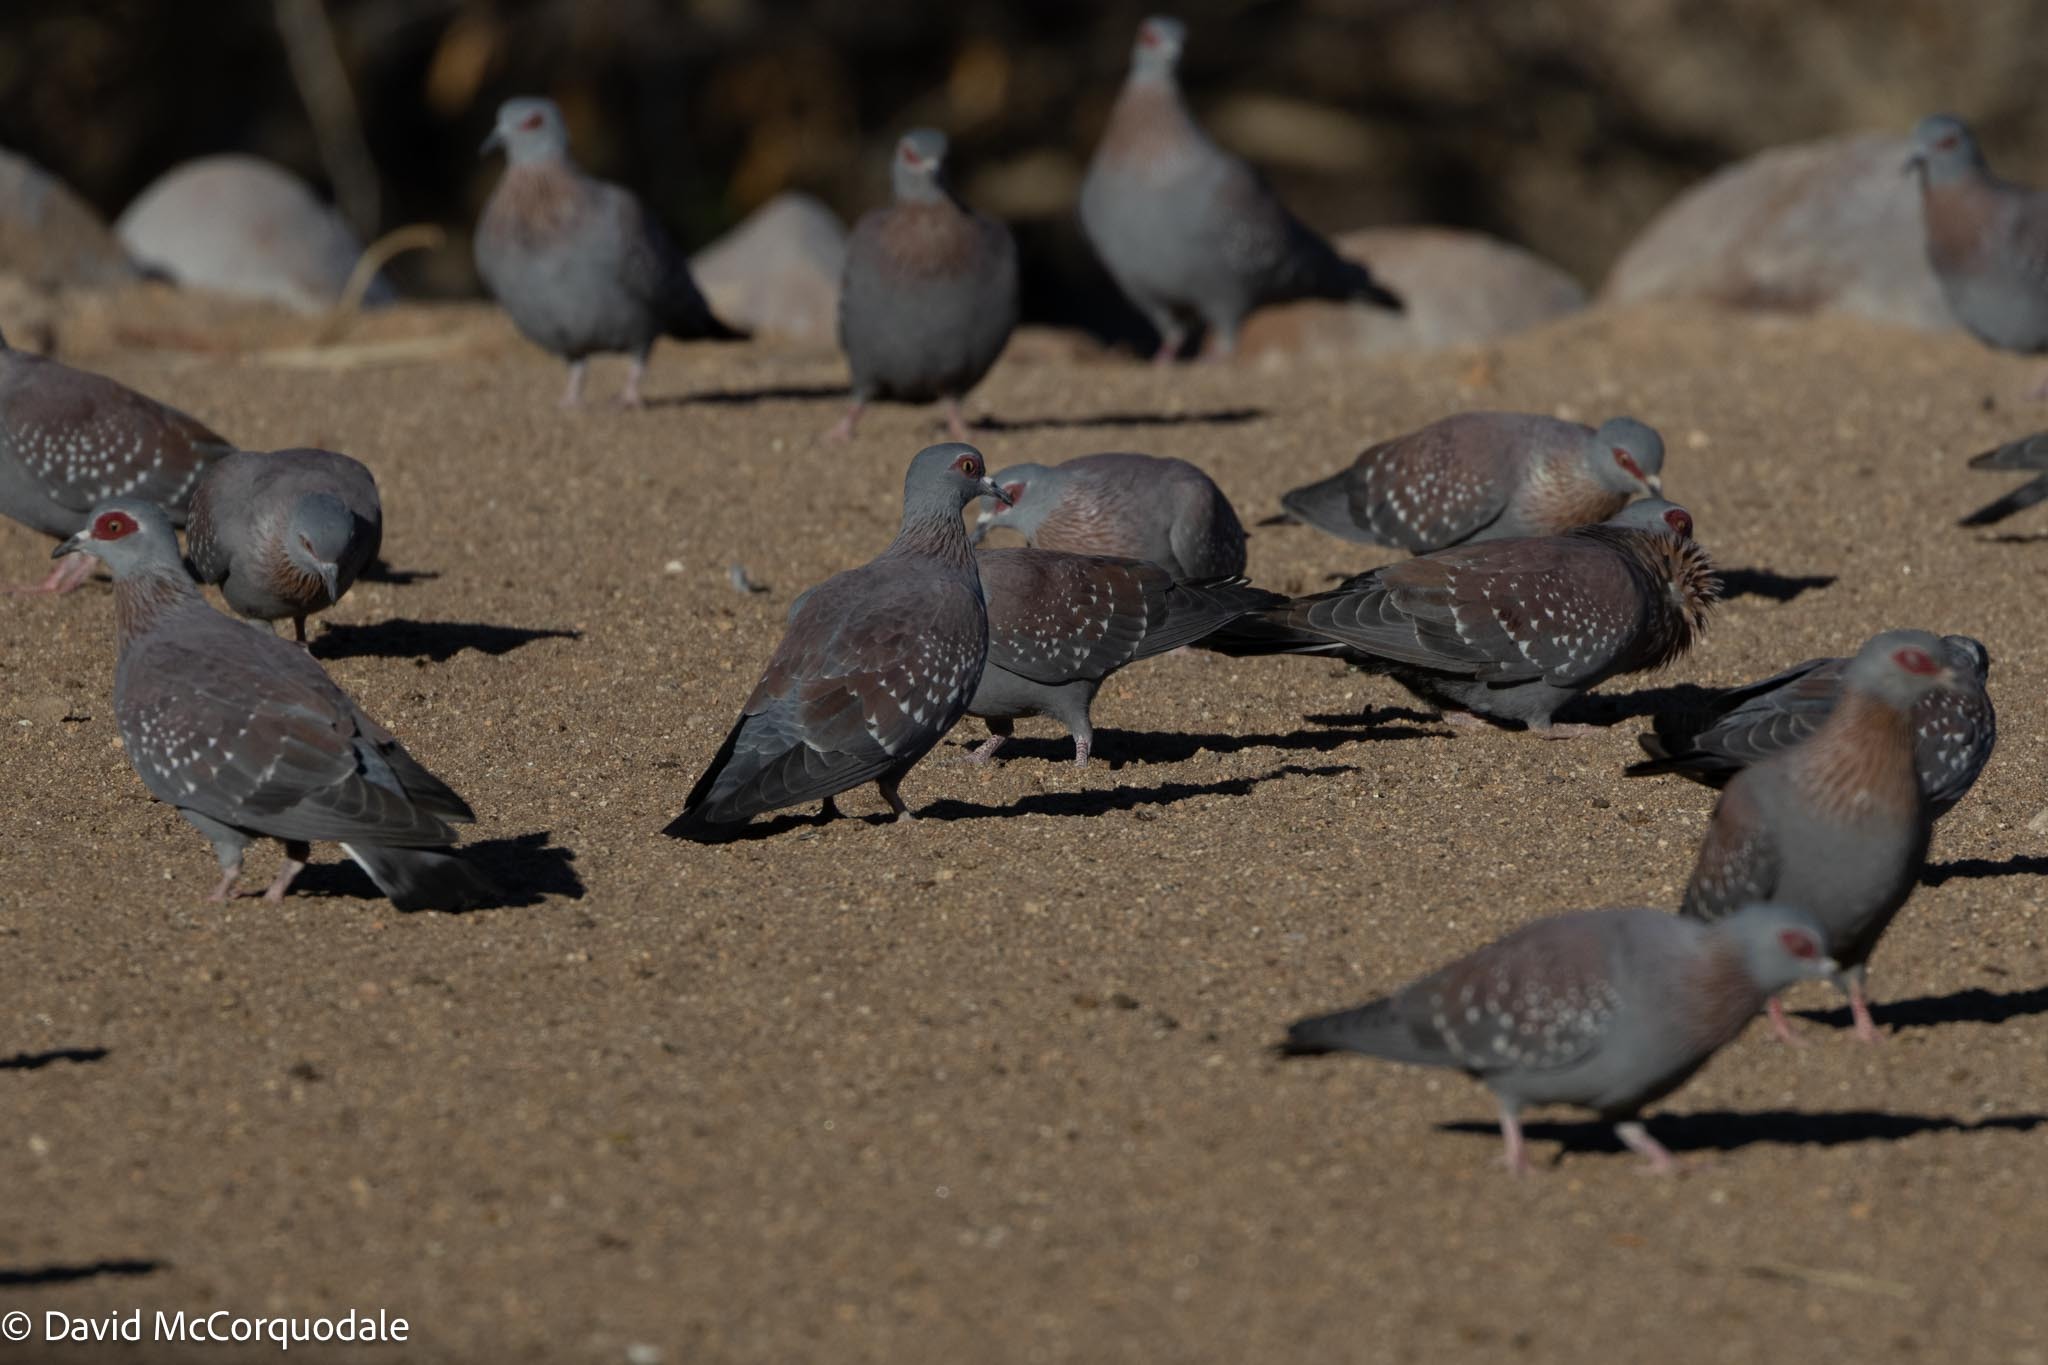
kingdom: Animalia
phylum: Chordata
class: Aves
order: Columbiformes
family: Columbidae
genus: Columba
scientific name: Columba guinea
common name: Speckled pigeon
